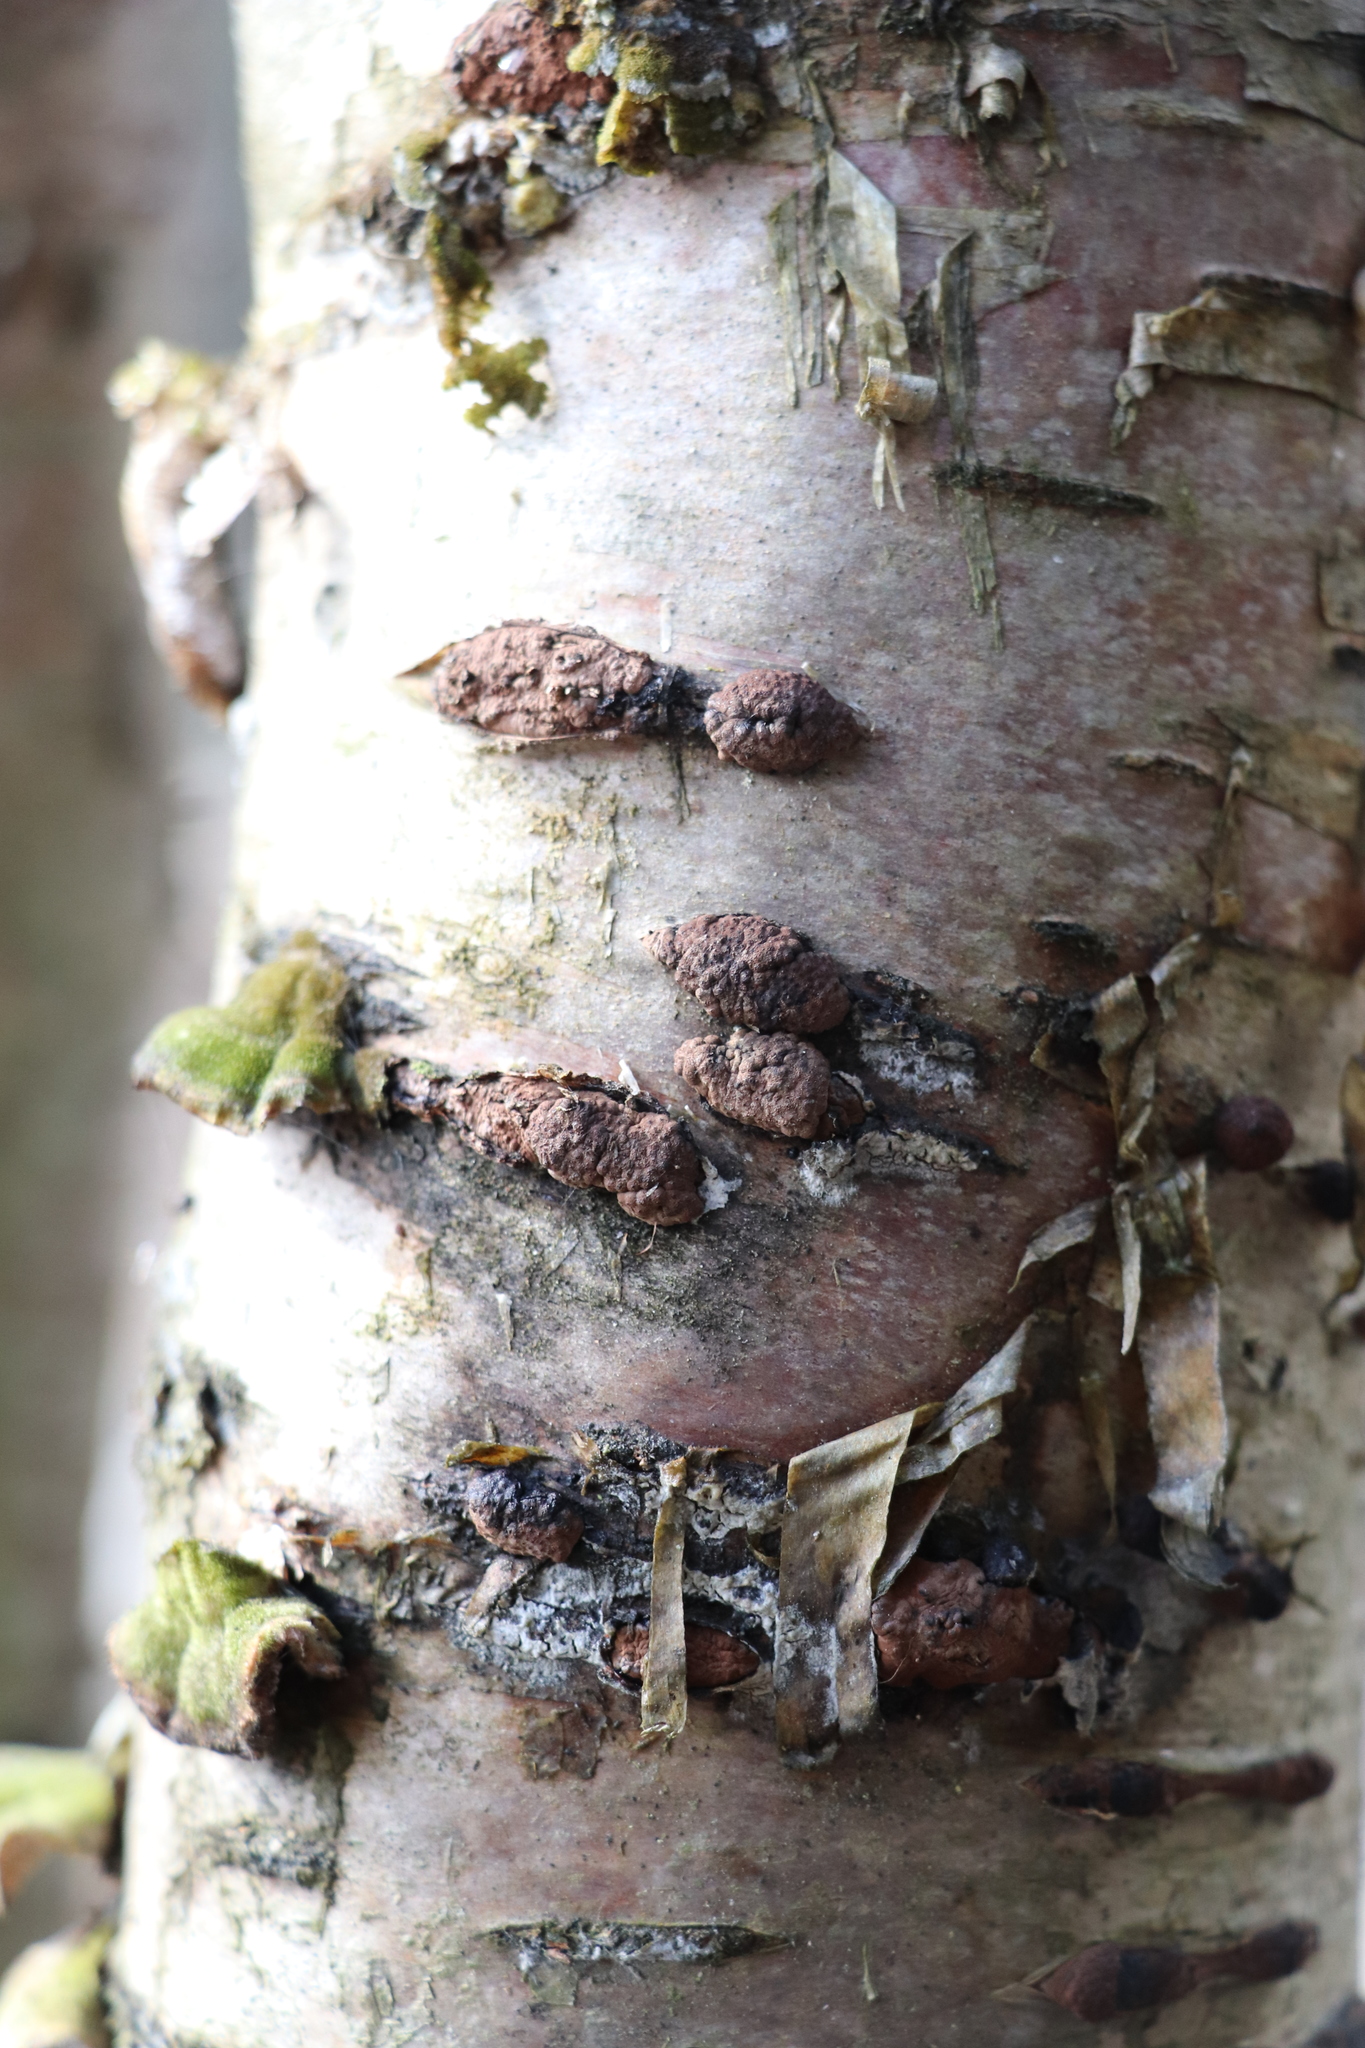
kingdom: Fungi
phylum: Ascomycota
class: Sordariomycetes
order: Xylariales
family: Hypoxylaceae
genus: Jackrogersella
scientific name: Jackrogersella multiformis
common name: Birch woodwart
